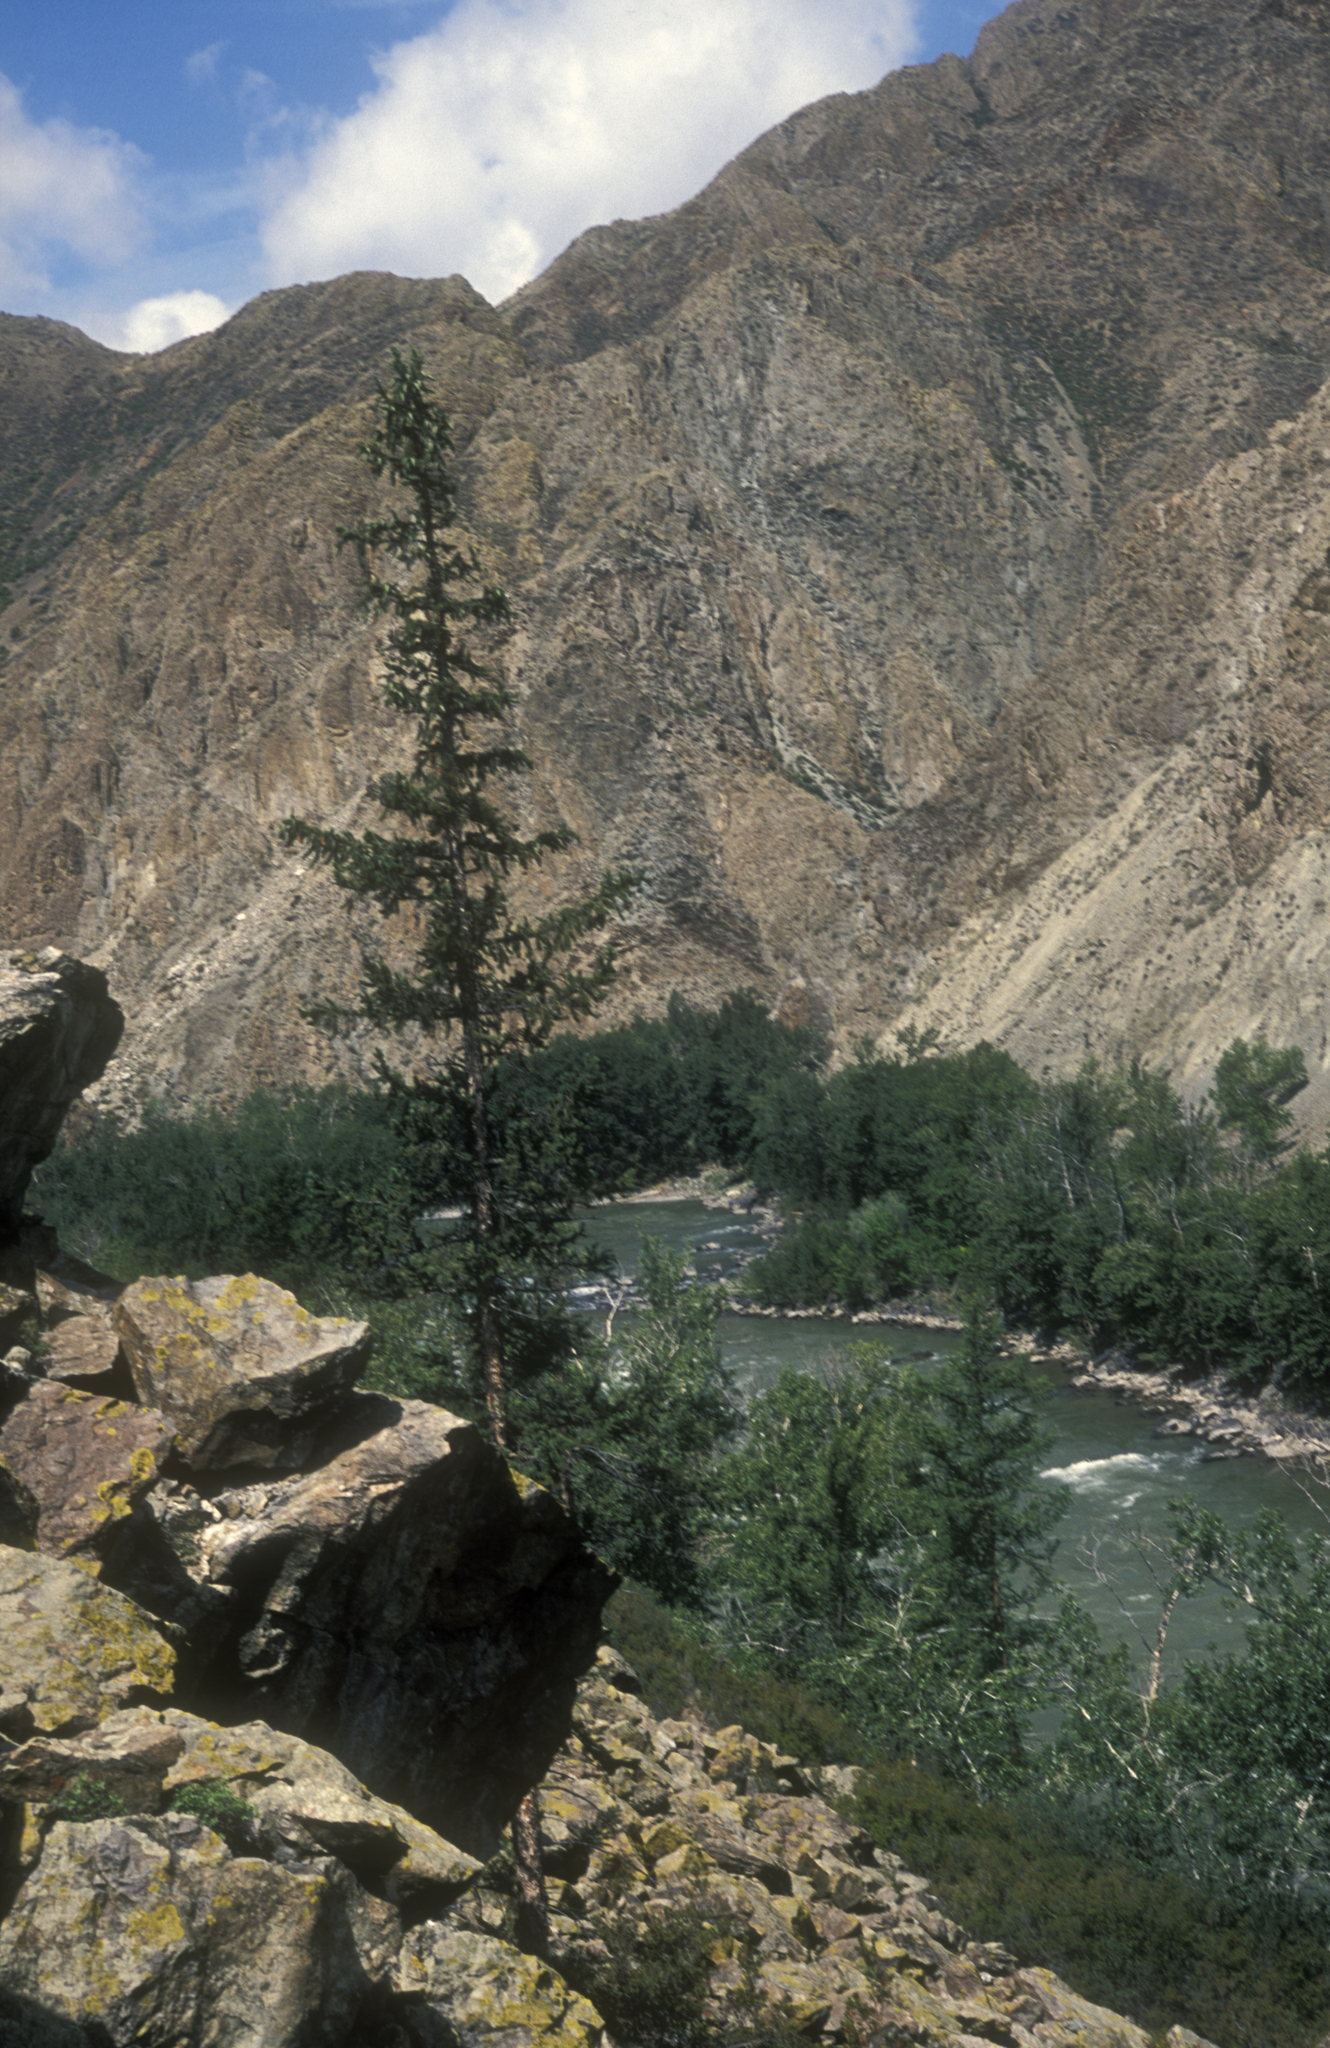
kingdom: Plantae
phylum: Tracheophyta
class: Pinopsida
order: Pinales
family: Pinaceae
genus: Picea
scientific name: Picea obovata
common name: Siberian spruce
